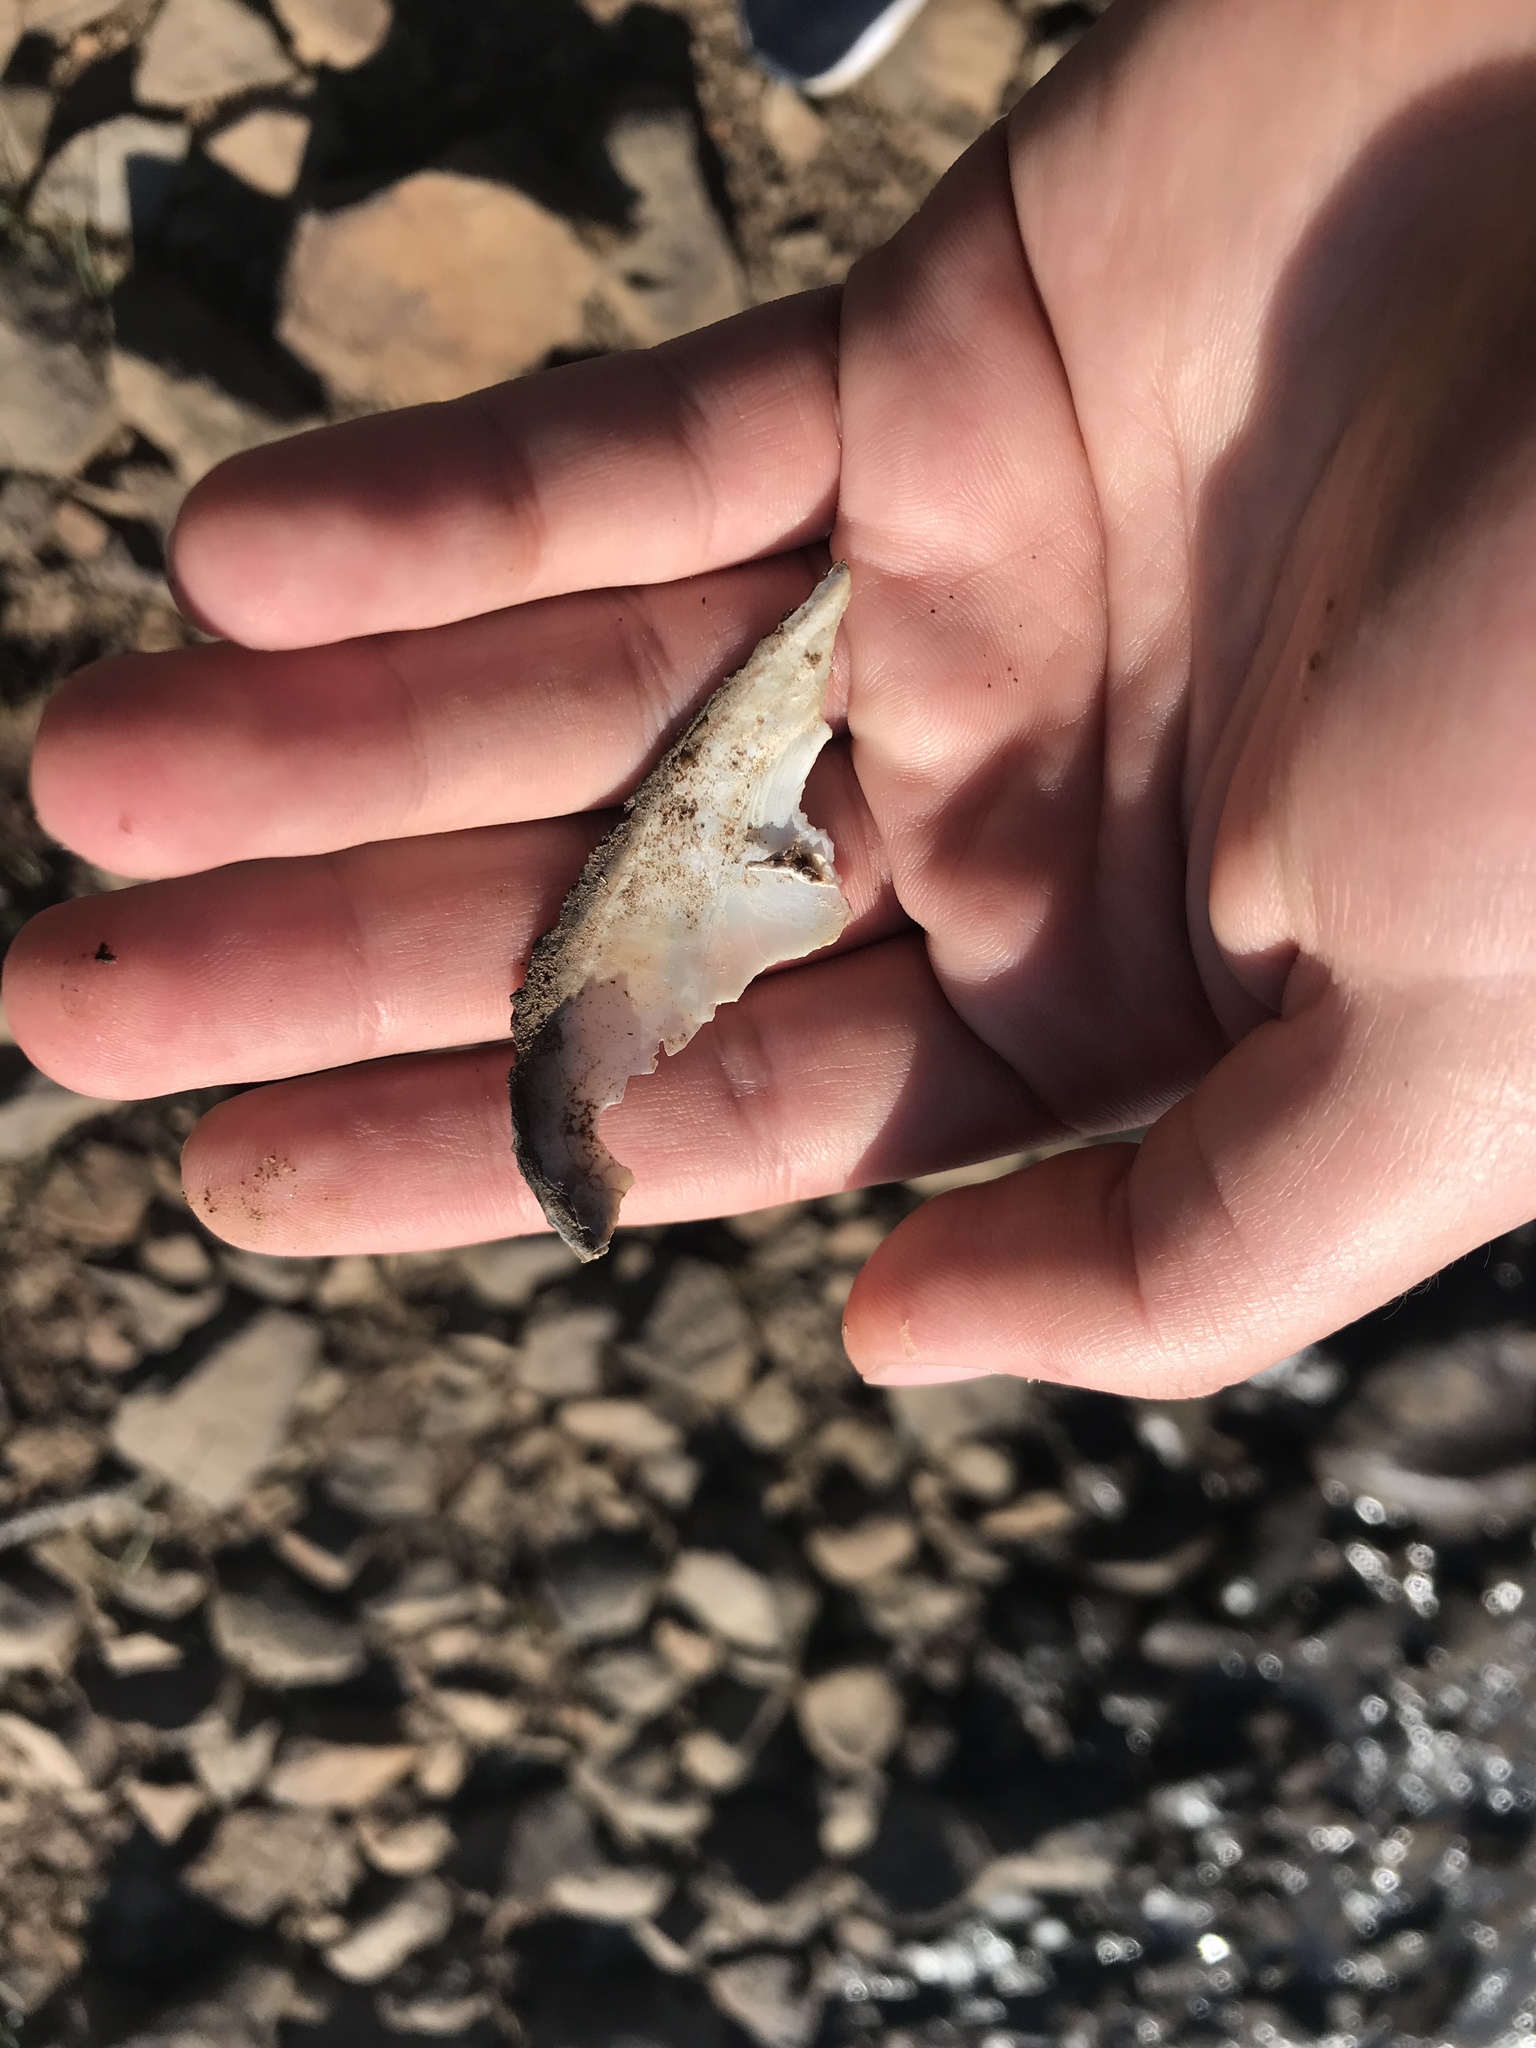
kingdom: Animalia
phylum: Mollusca
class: Bivalvia
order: Unionida
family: Unionidae
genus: Pyganodon
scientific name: Pyganodon grandis
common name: Giant floater
